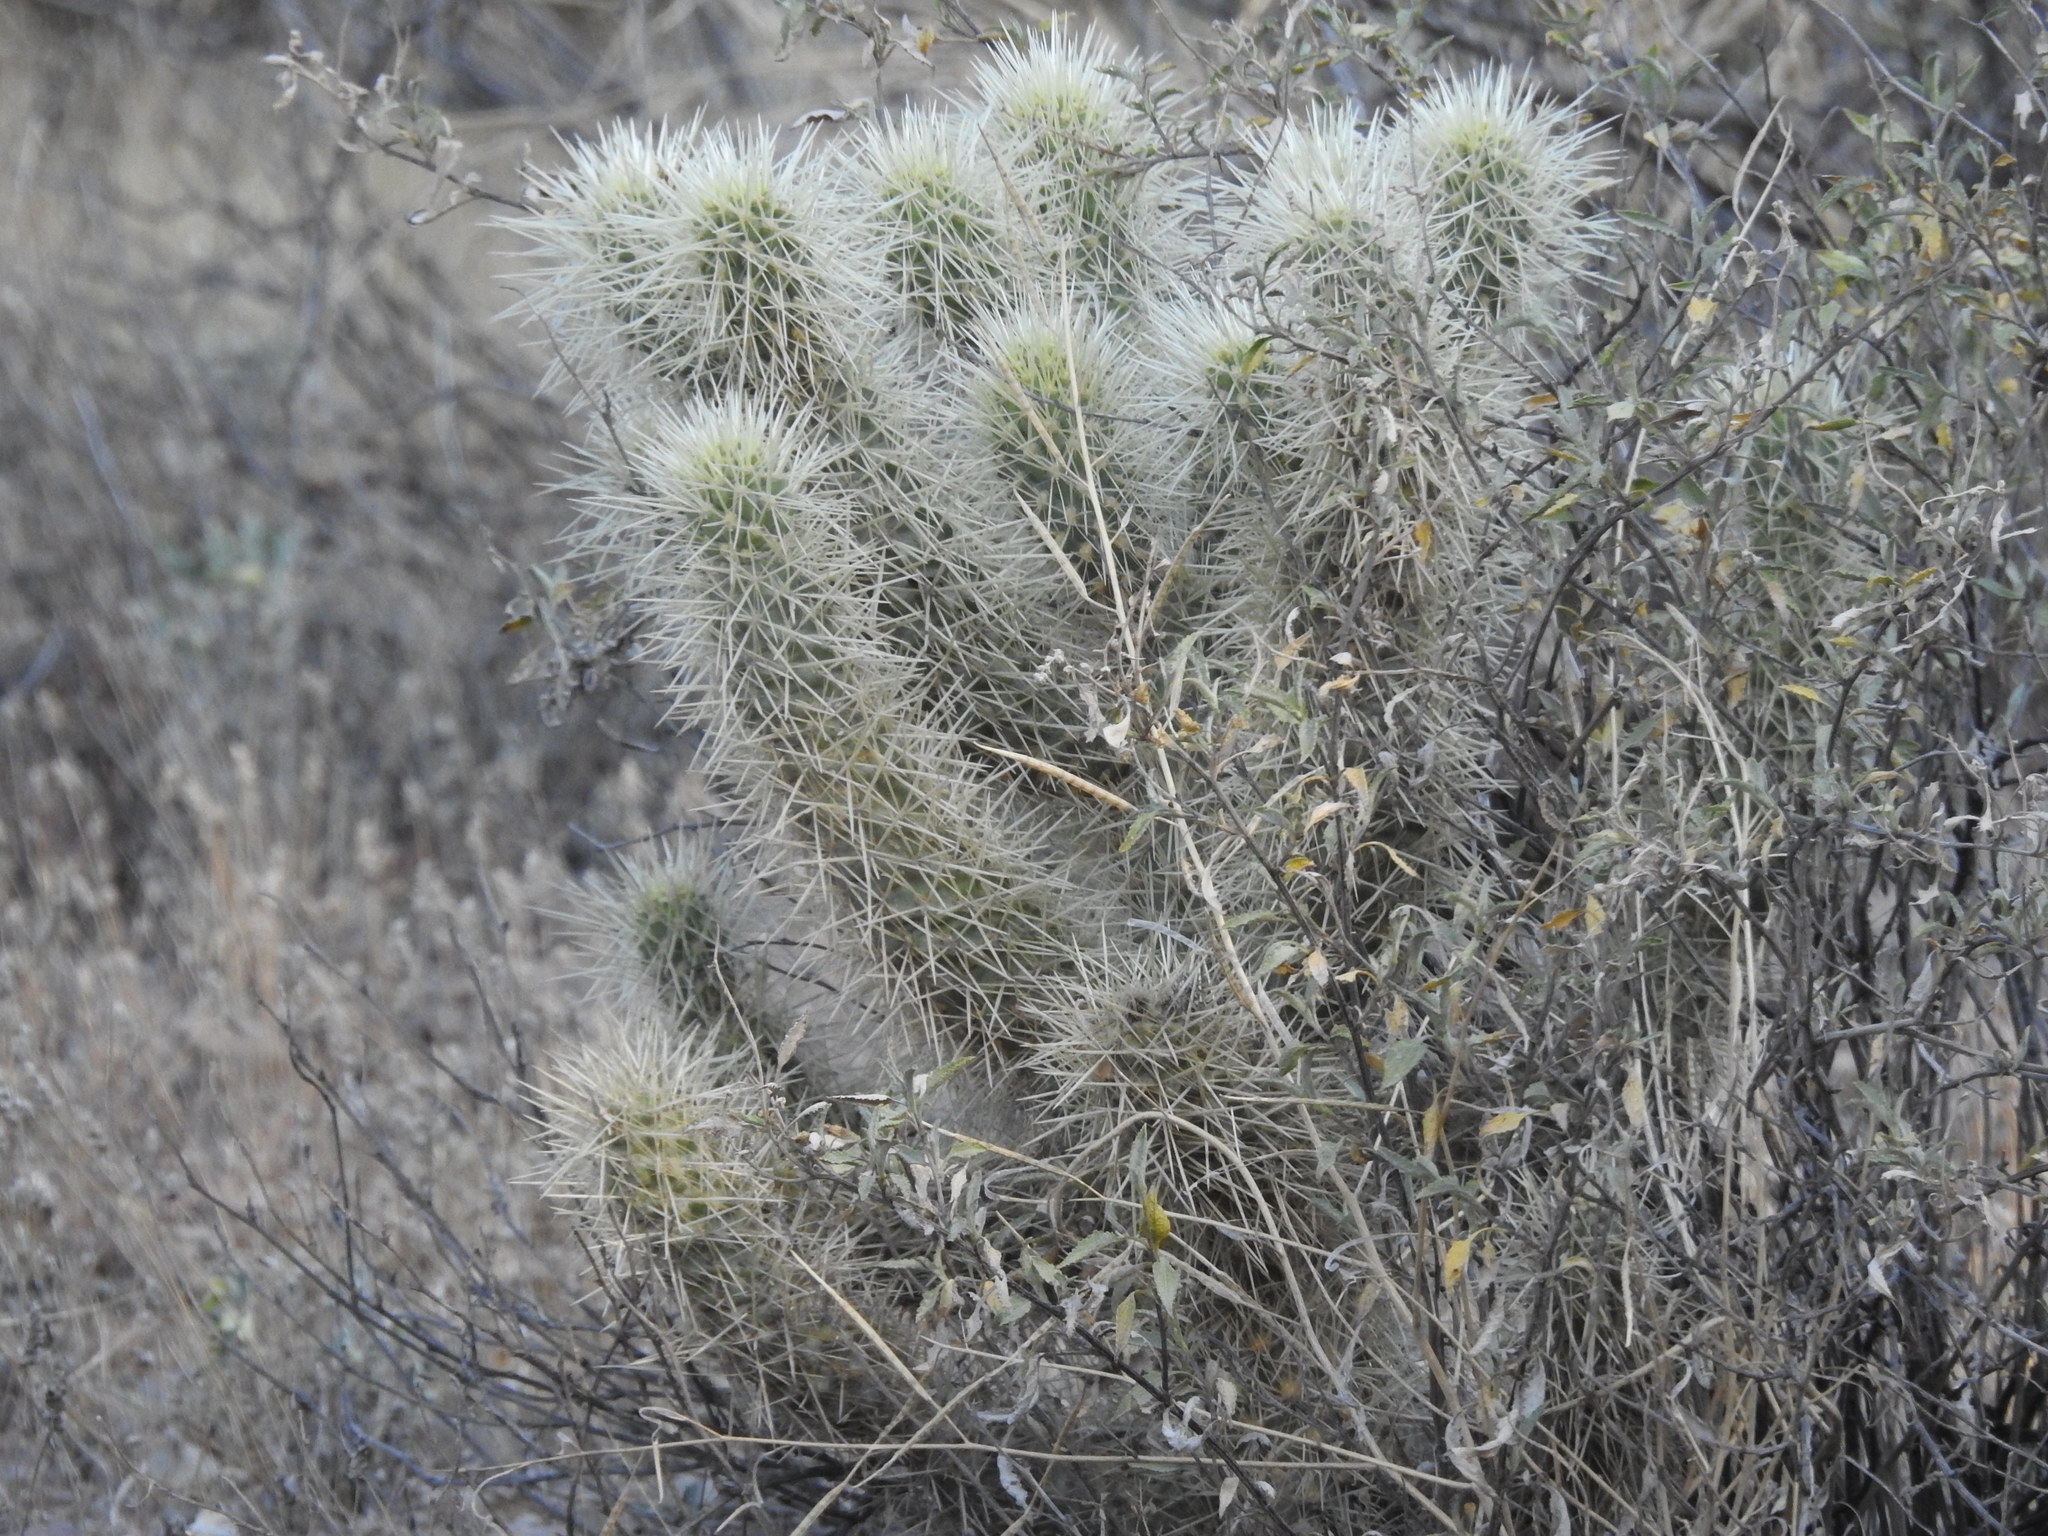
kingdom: Plantae
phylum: Tracheophyta
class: Magnoliopsida
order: Caryophyllales
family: Cactaceae
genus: Cylindropuntia
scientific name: Cylindropuntia fosbergii
